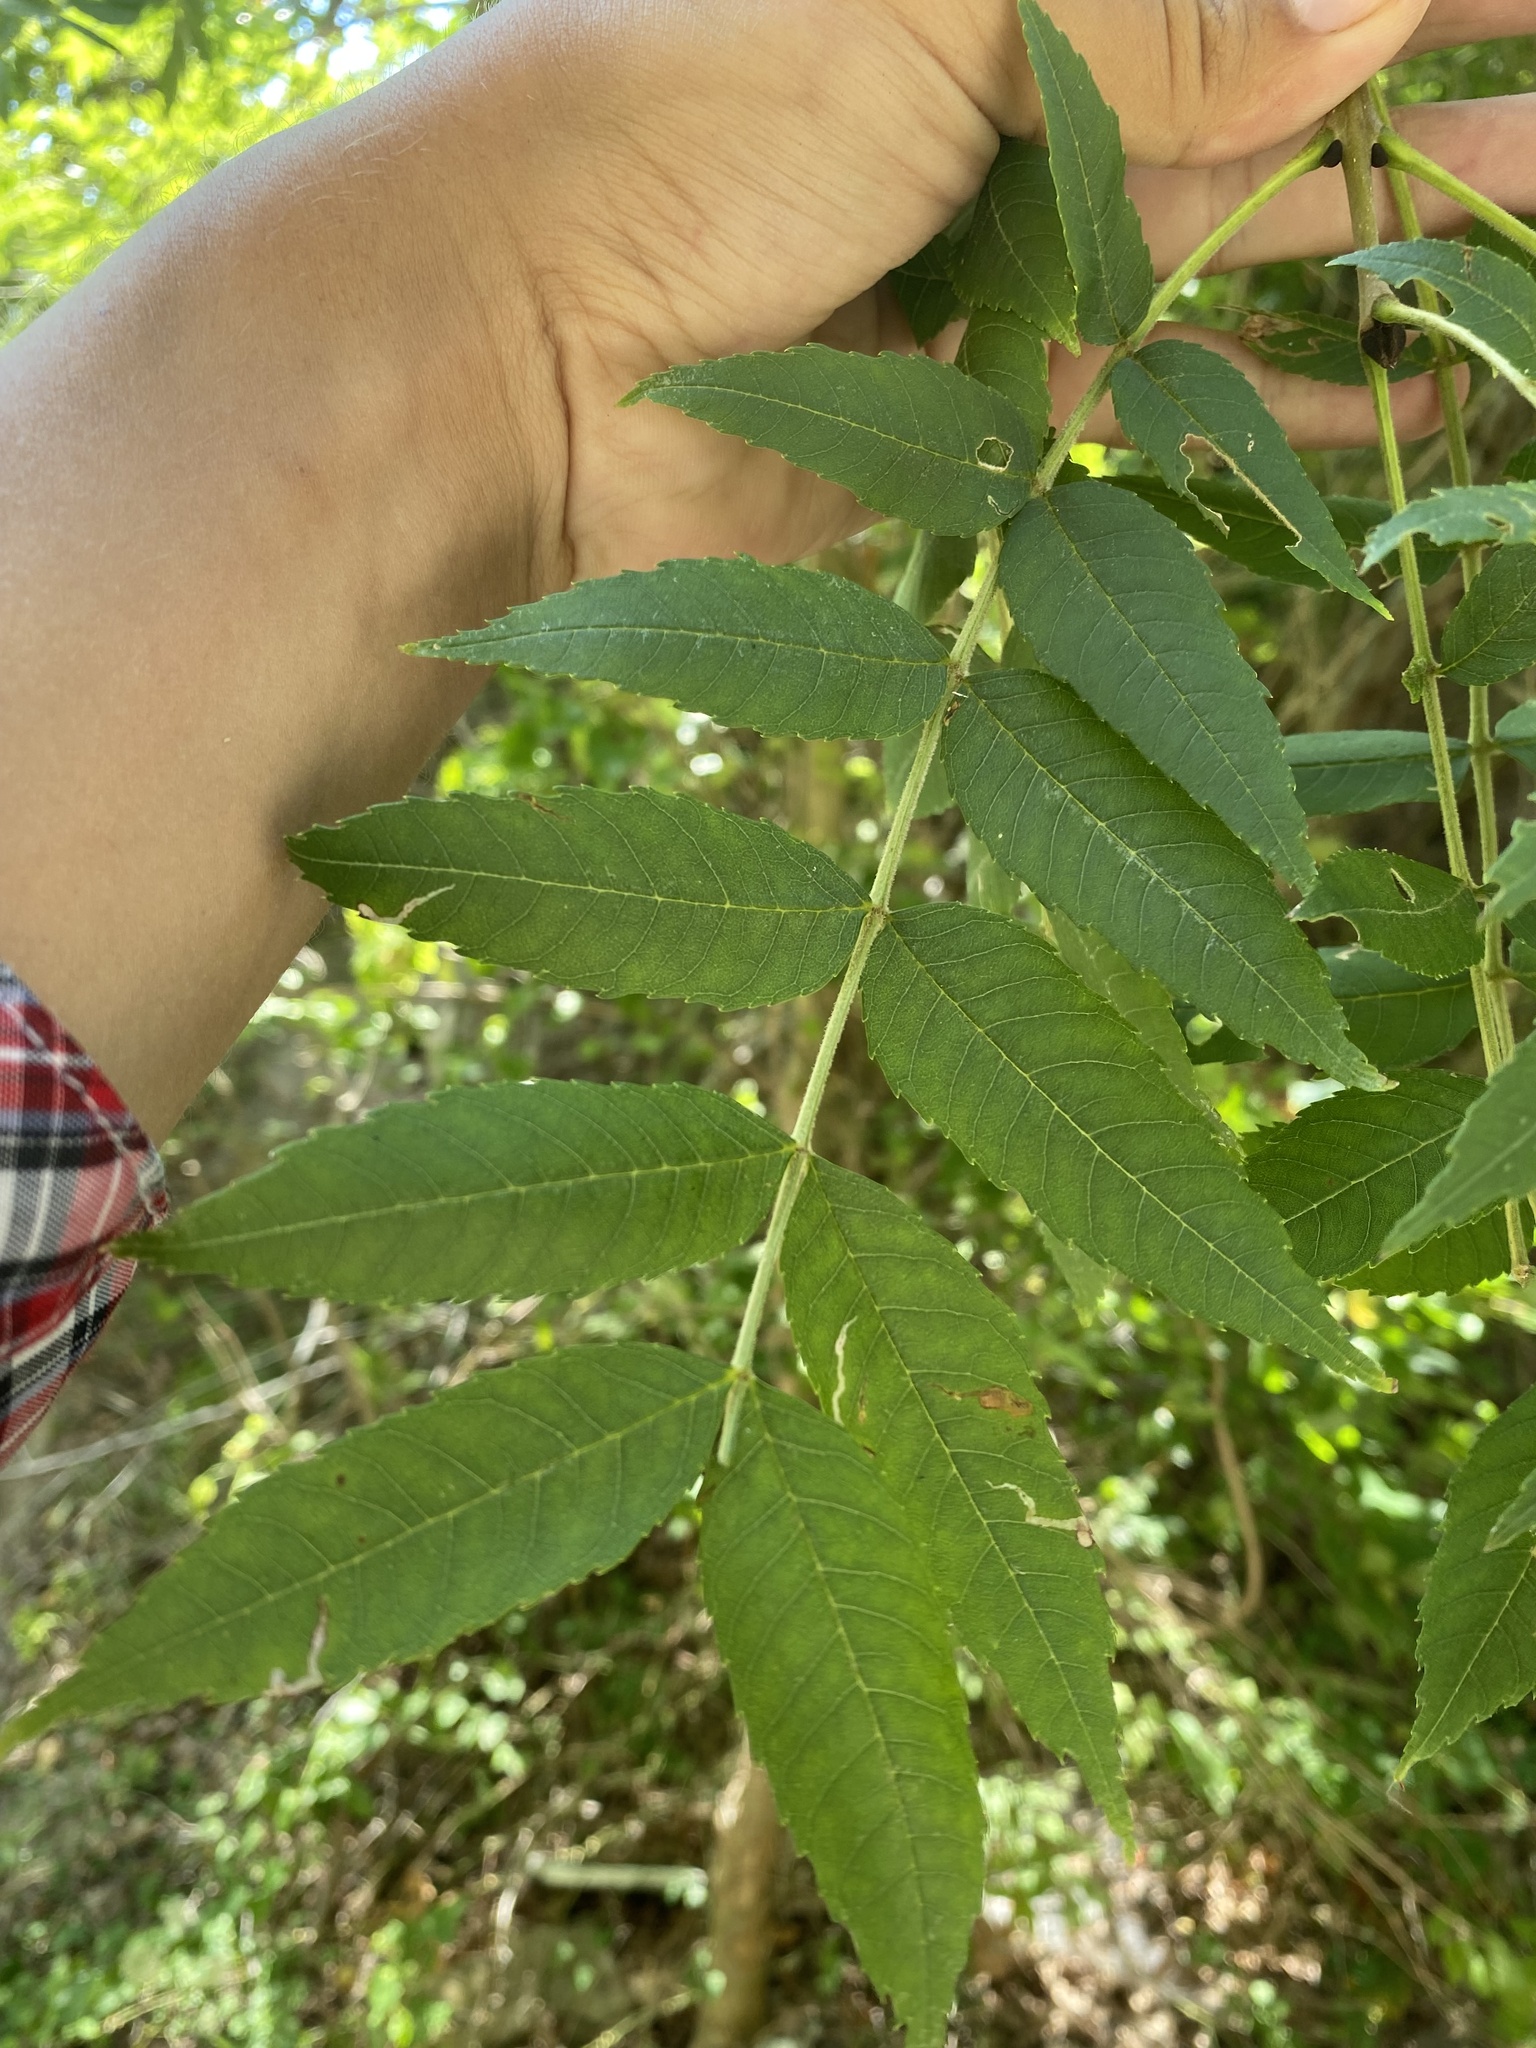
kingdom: Plantae
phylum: Tracheophyta
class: Magnoliopsida
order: Lamiales
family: Oleaceae
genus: Fraxinus
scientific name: Fraxinus excelsior
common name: European ash
